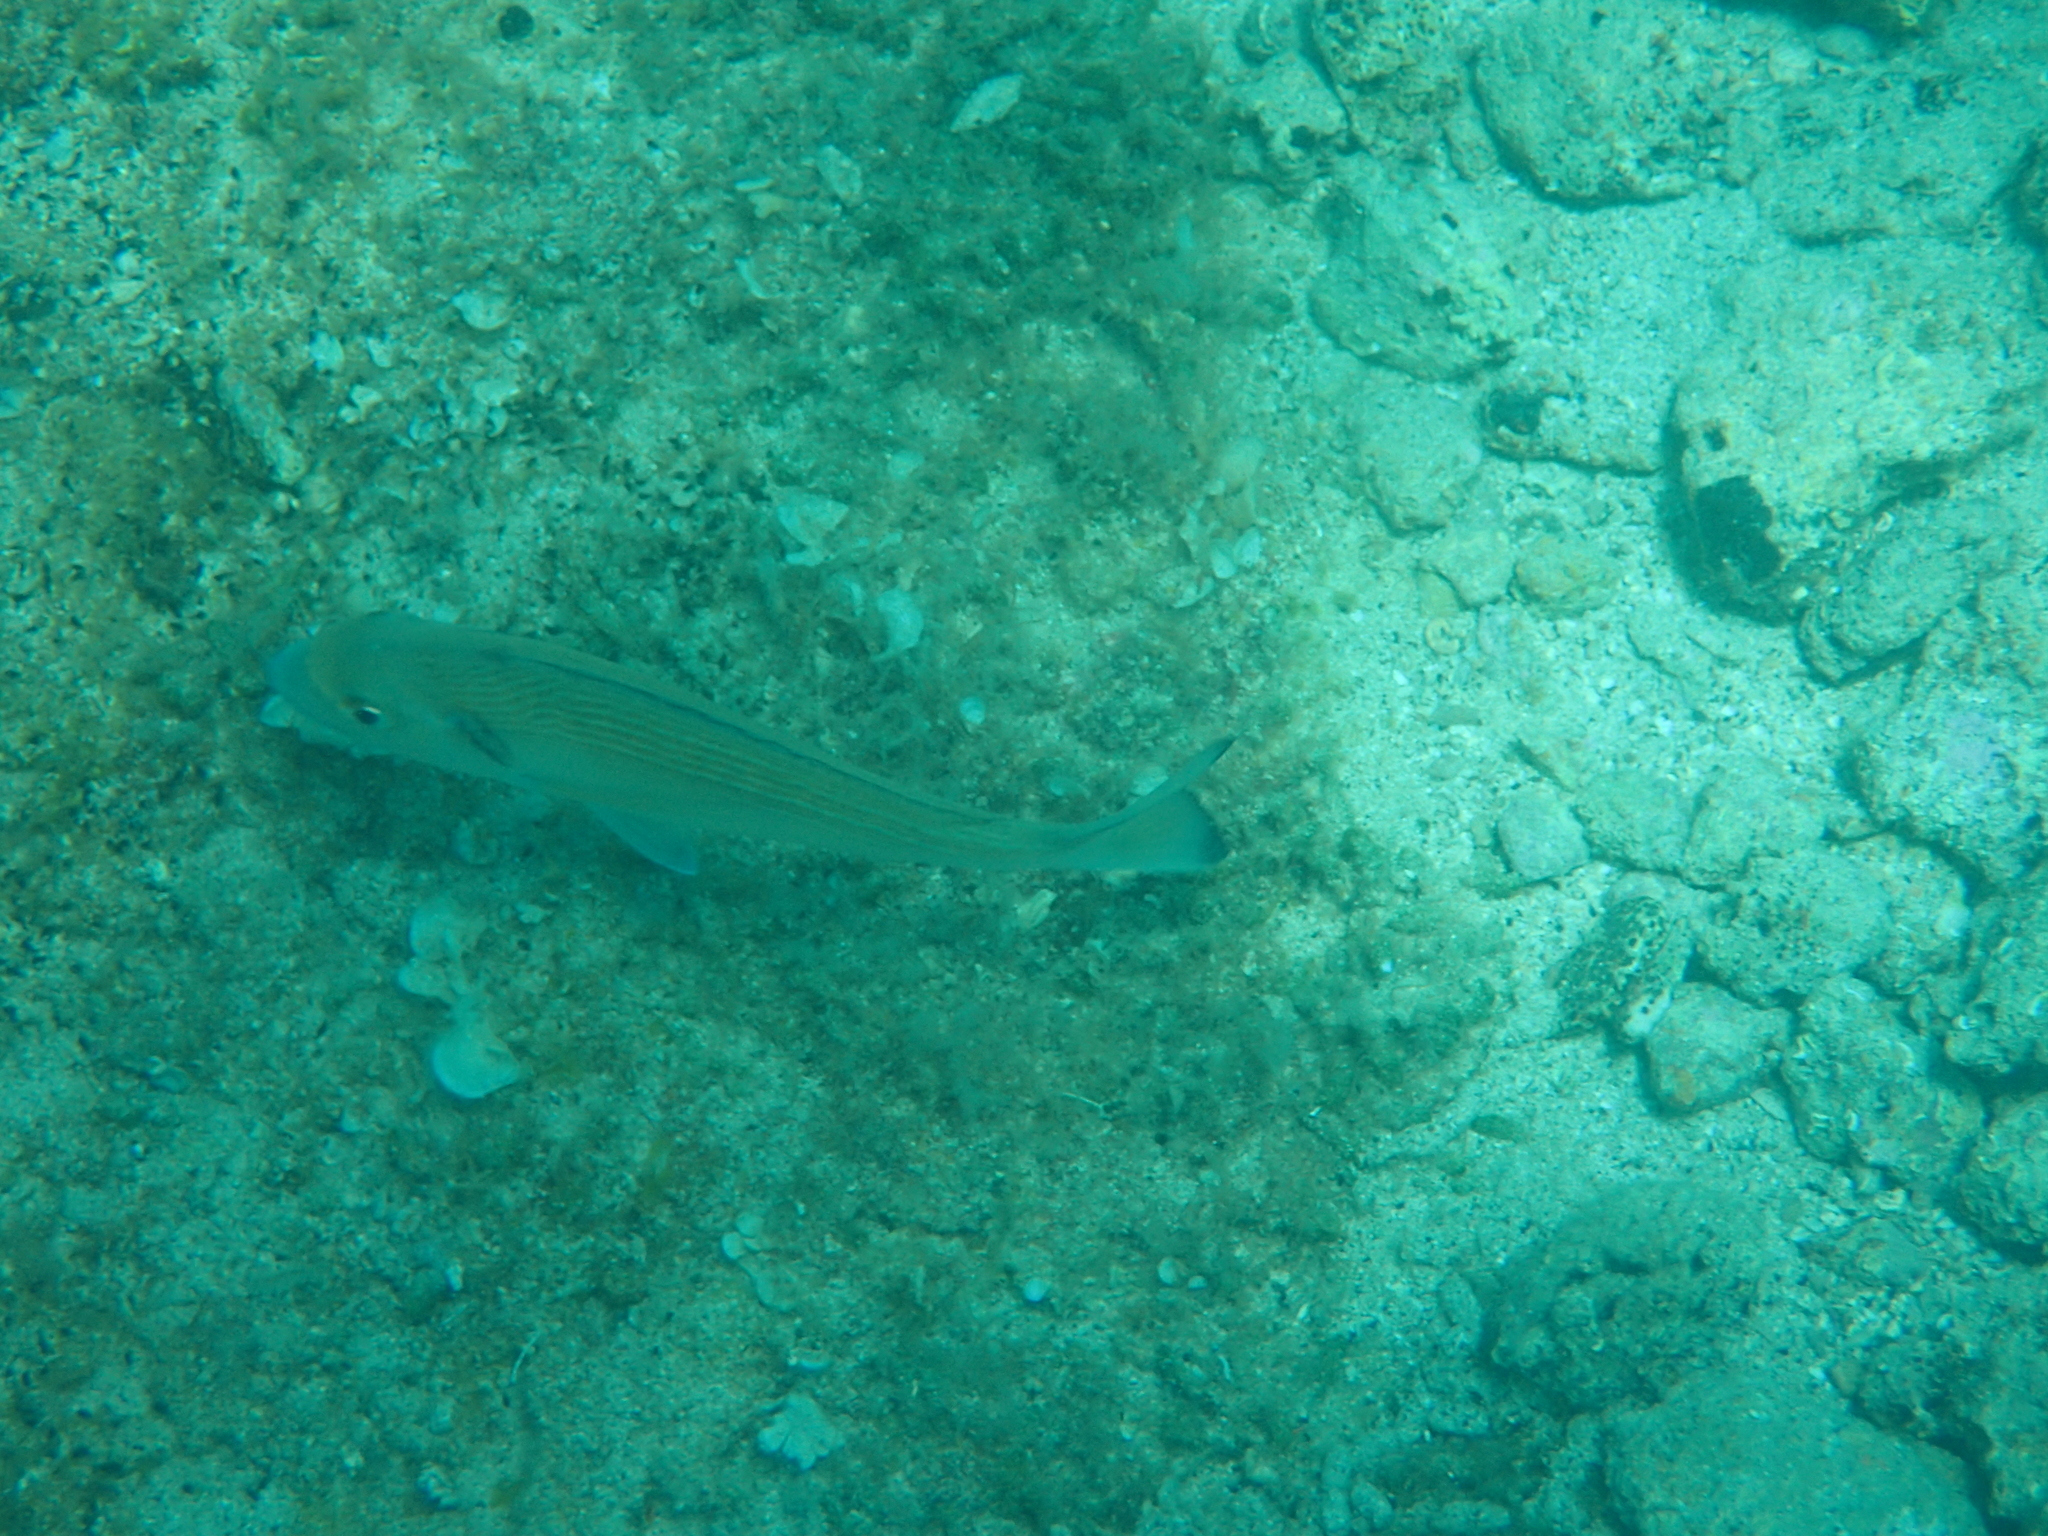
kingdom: Animalia
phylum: Chordata
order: Perciformes
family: Sparidae
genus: Sparus
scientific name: Sparus aurata
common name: Gilthead
